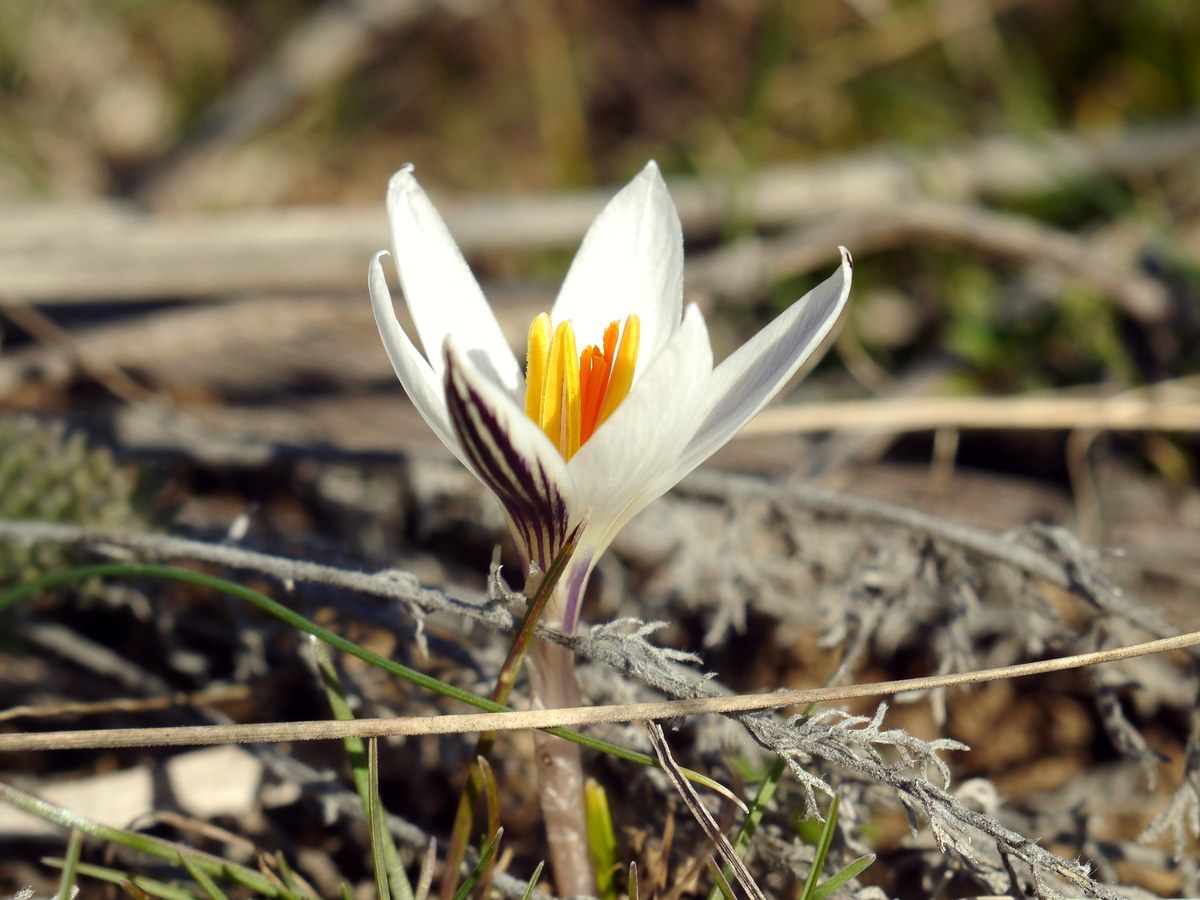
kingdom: Plantae
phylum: Tracheophyta
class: Liliopsida
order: Asparagales
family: Iridaceae
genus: Crocus
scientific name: Crocus reticulatus
